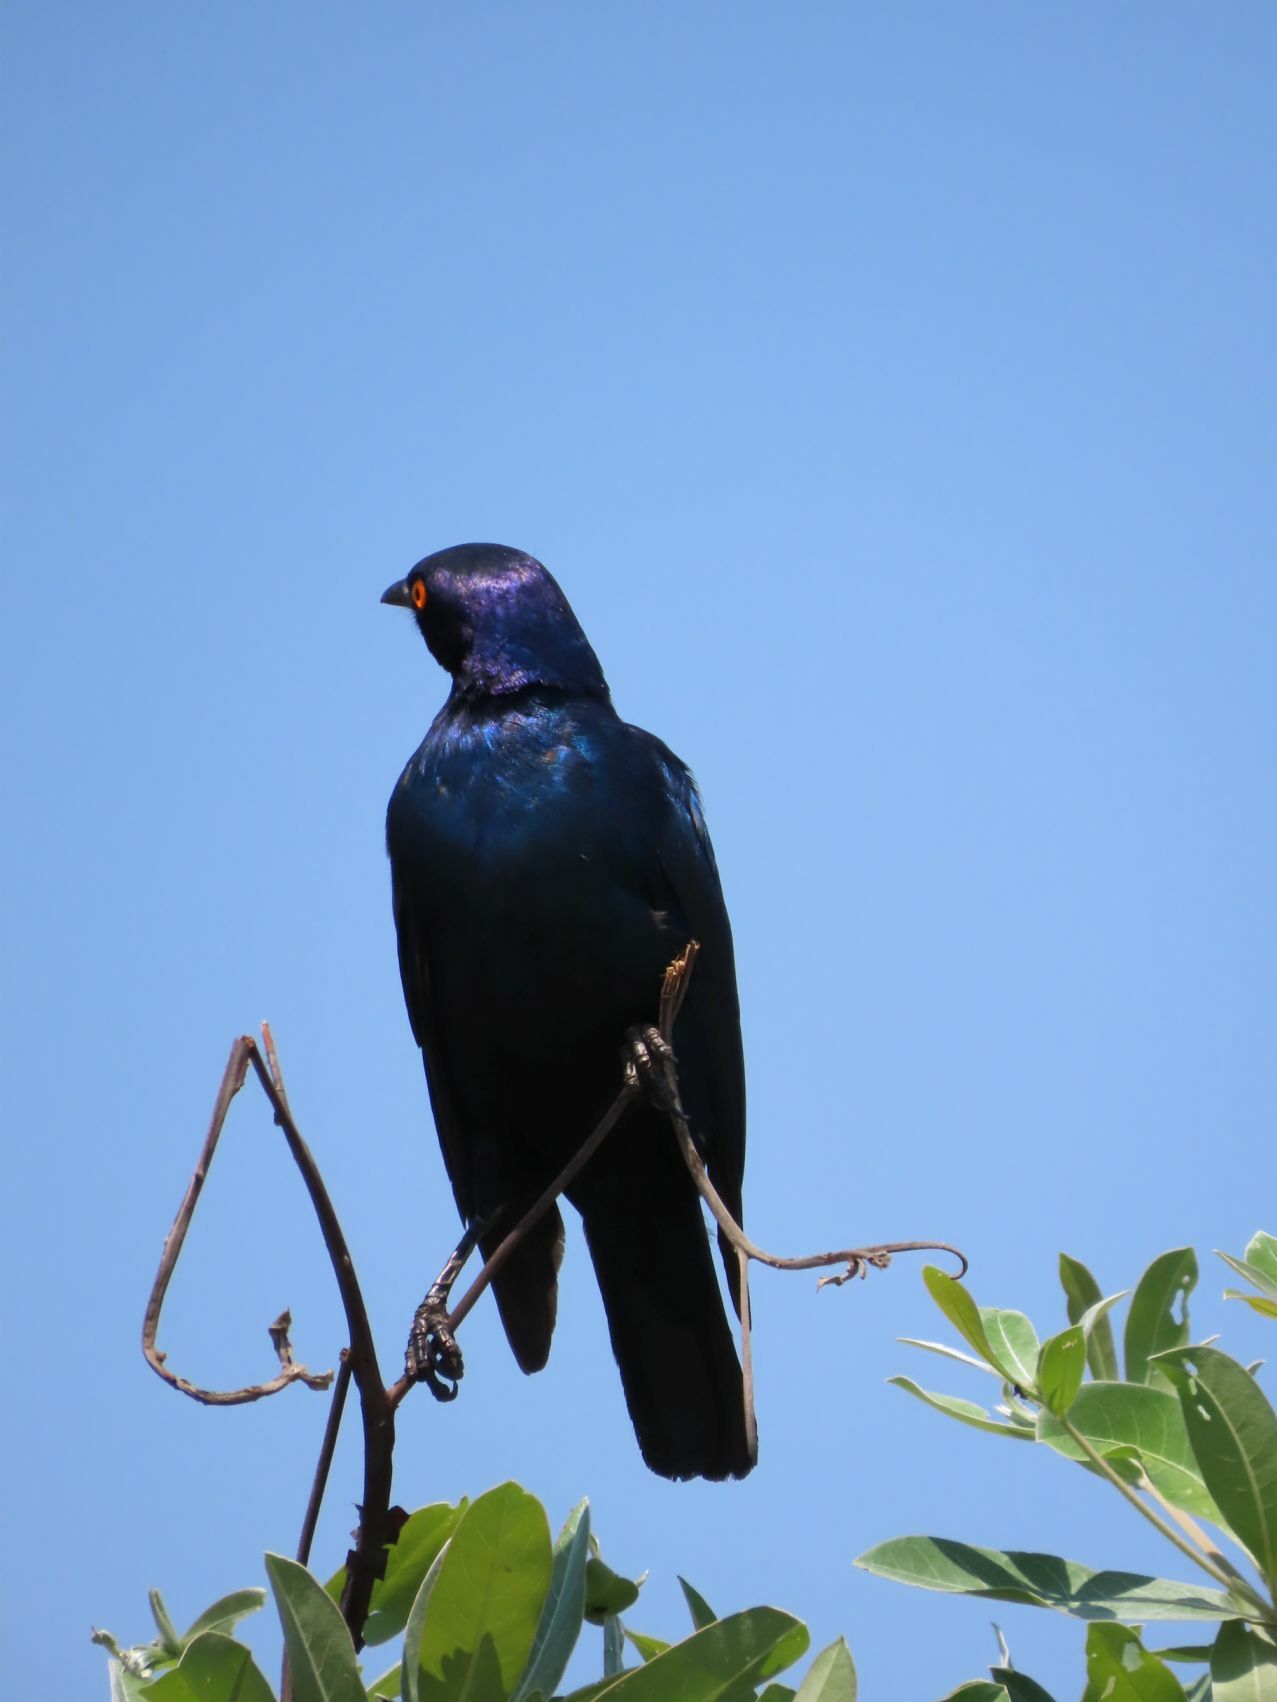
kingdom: Animalia
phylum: Chordata
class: Aves
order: Passeriformes
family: Sturnidae
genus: Lamprotornis
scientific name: Lamprotornis nitens
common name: Cape starling
